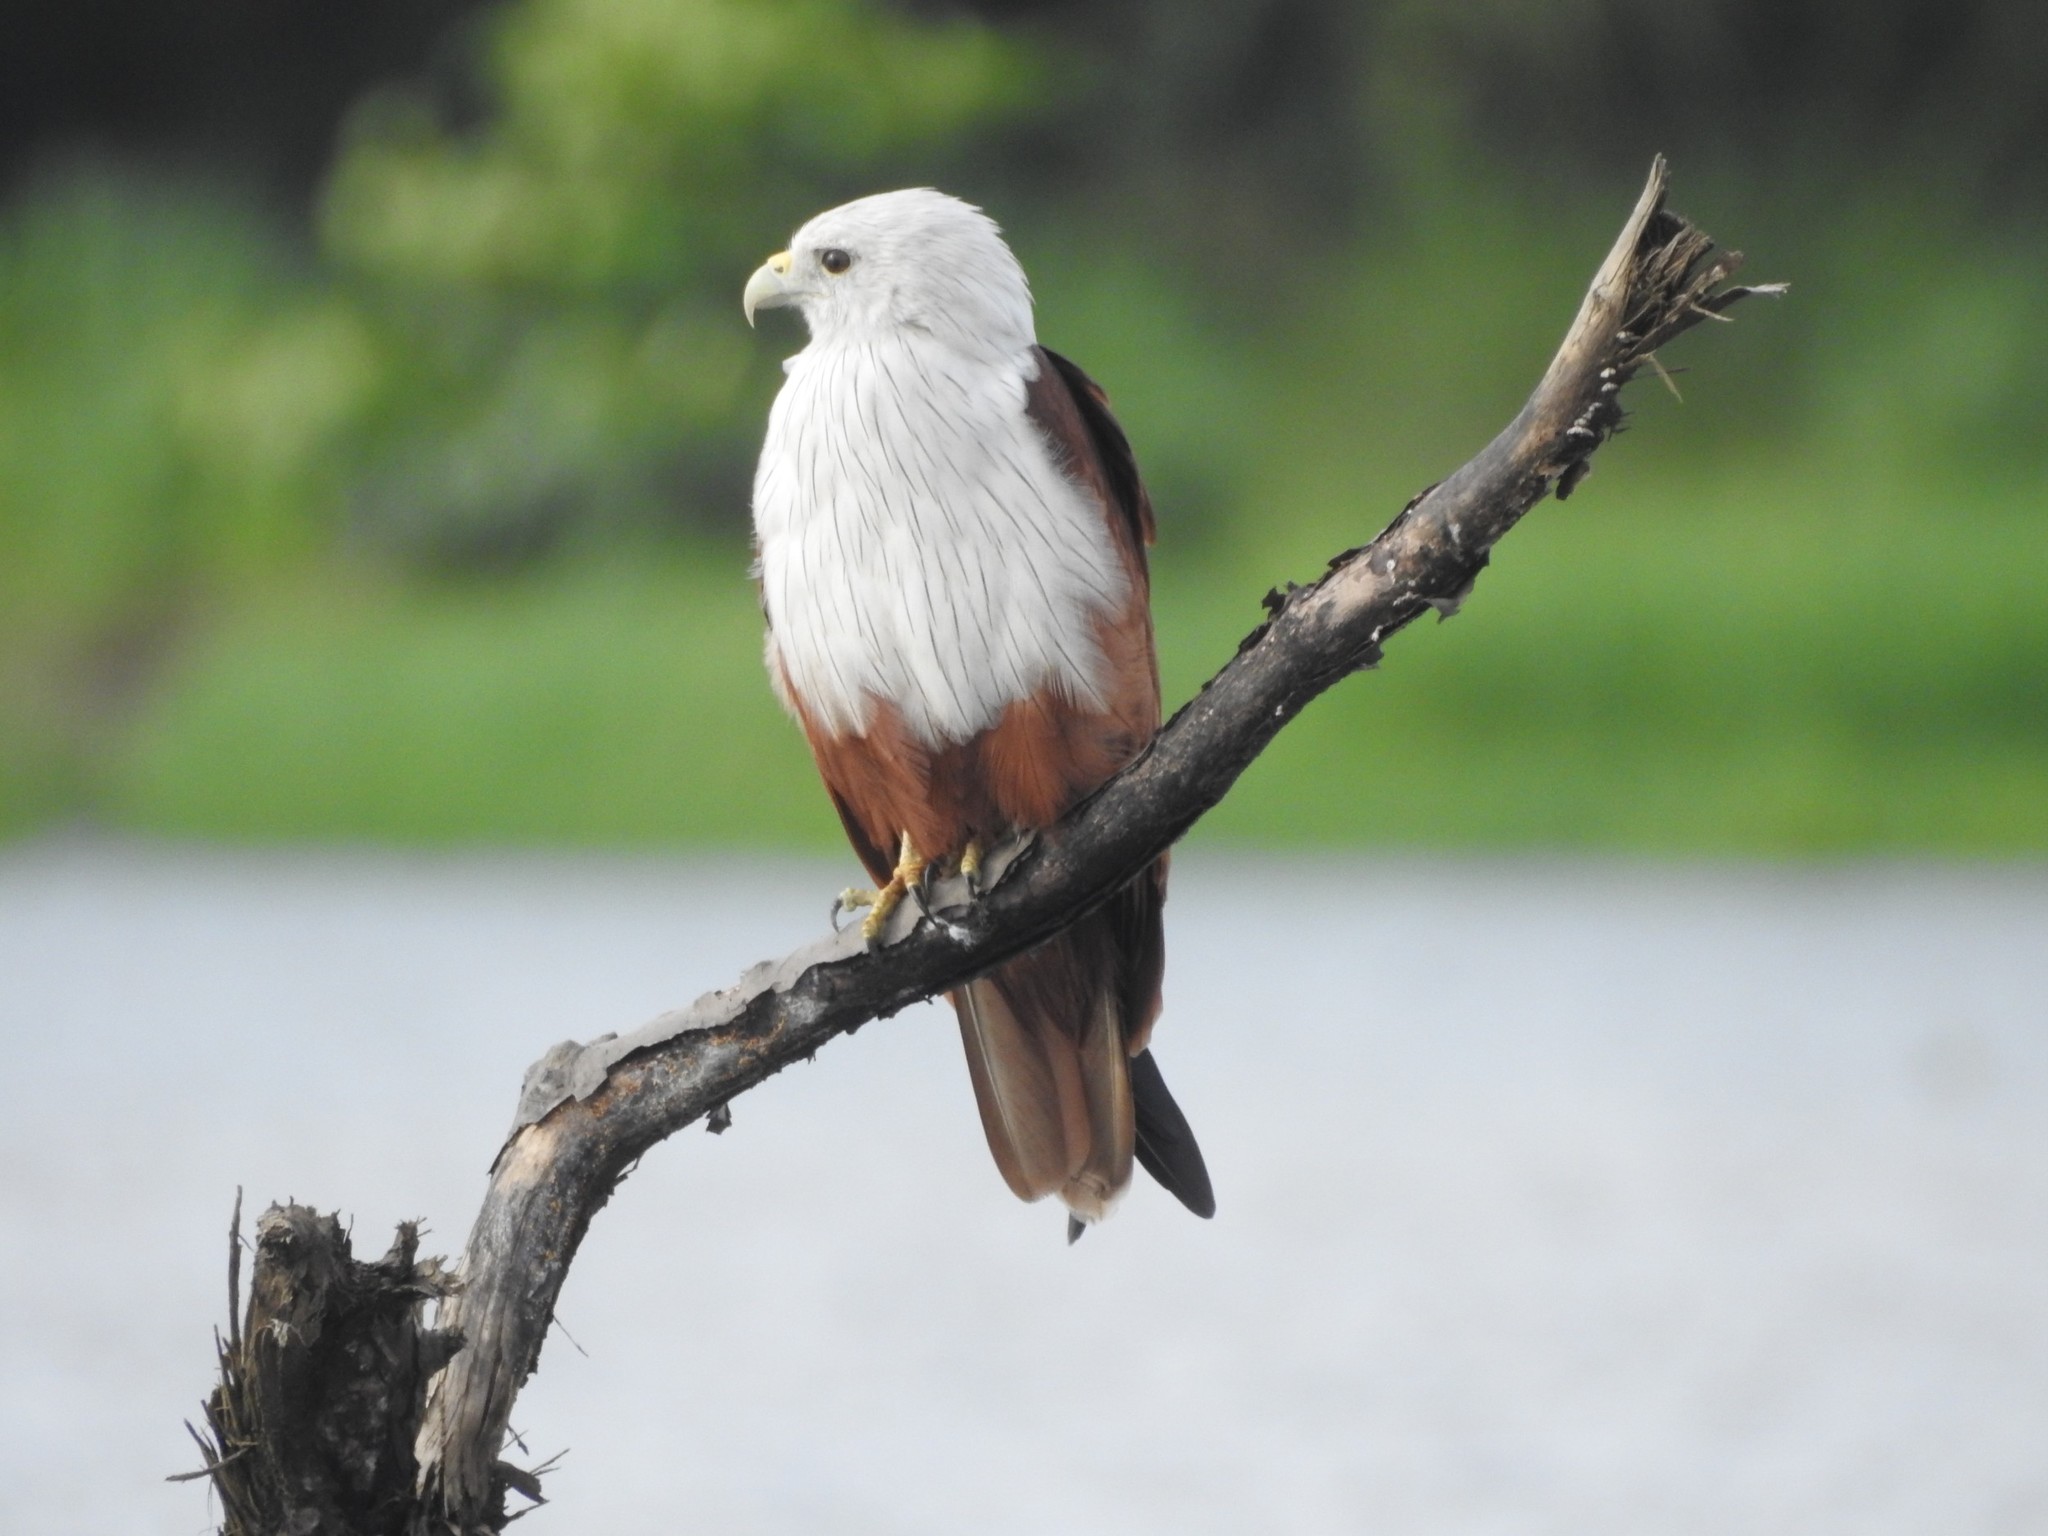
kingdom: Animalia
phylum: Chordata
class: Aves
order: Accipitriformes
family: Accipitridae
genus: Haliastur
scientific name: Haliastur indus
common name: Brahminy kite
